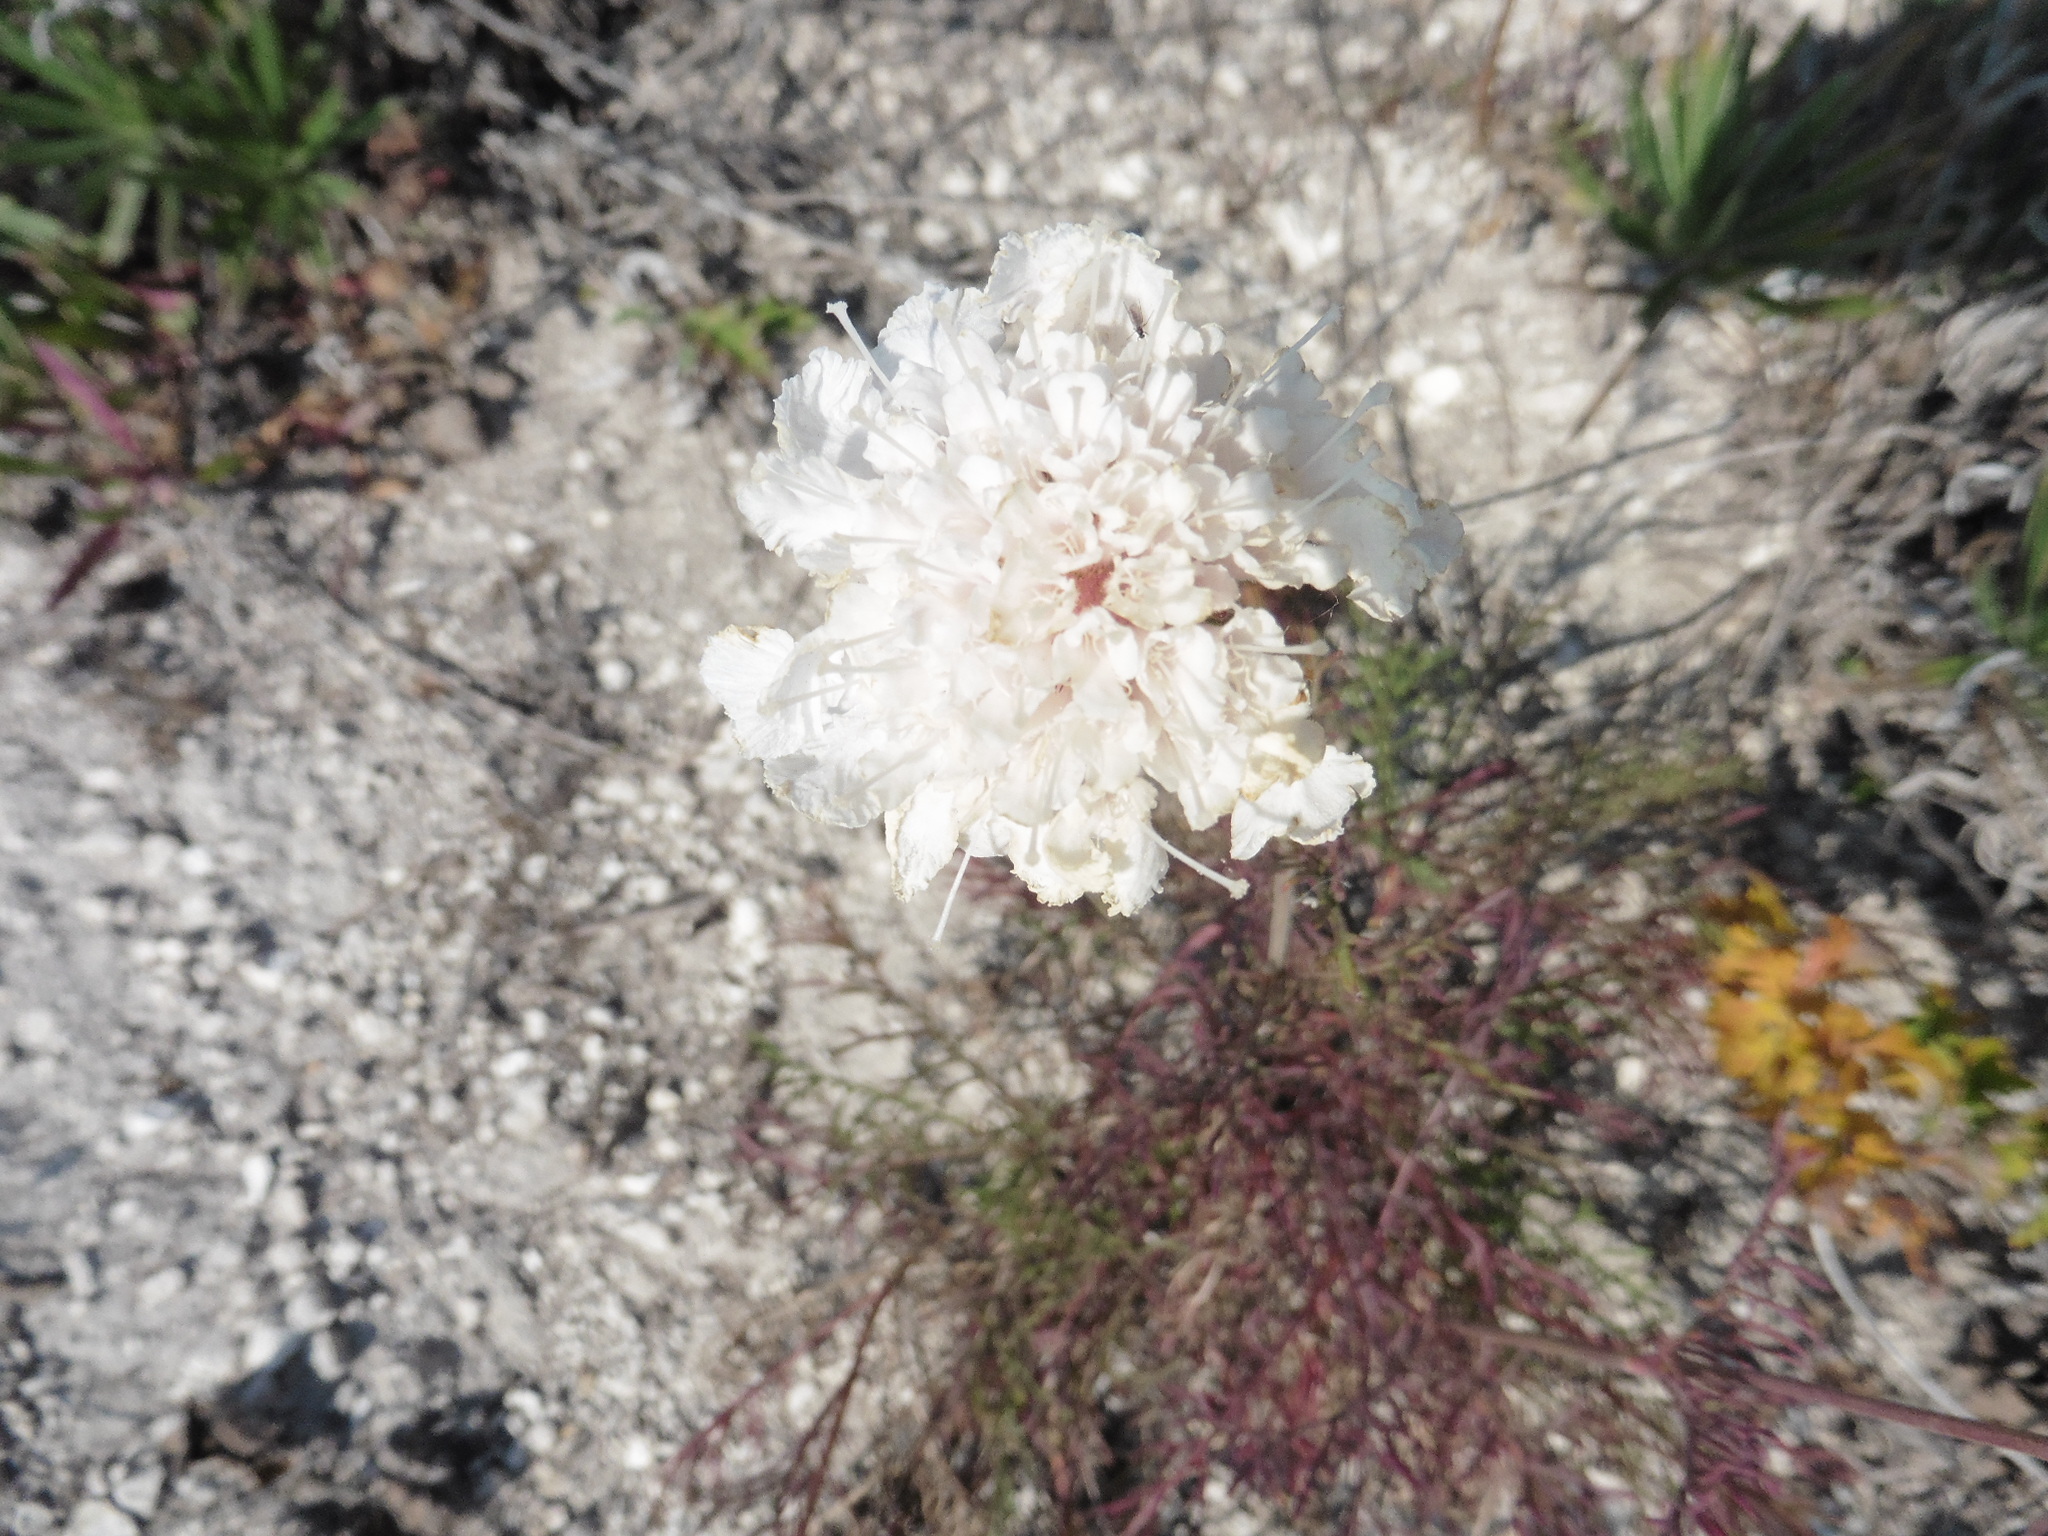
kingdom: Plantae
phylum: Tracheophyta
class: Magnoliopsida
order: Dipsacales
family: Caprifoliaceae
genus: Lomelosia
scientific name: Lomelosia isetensis
